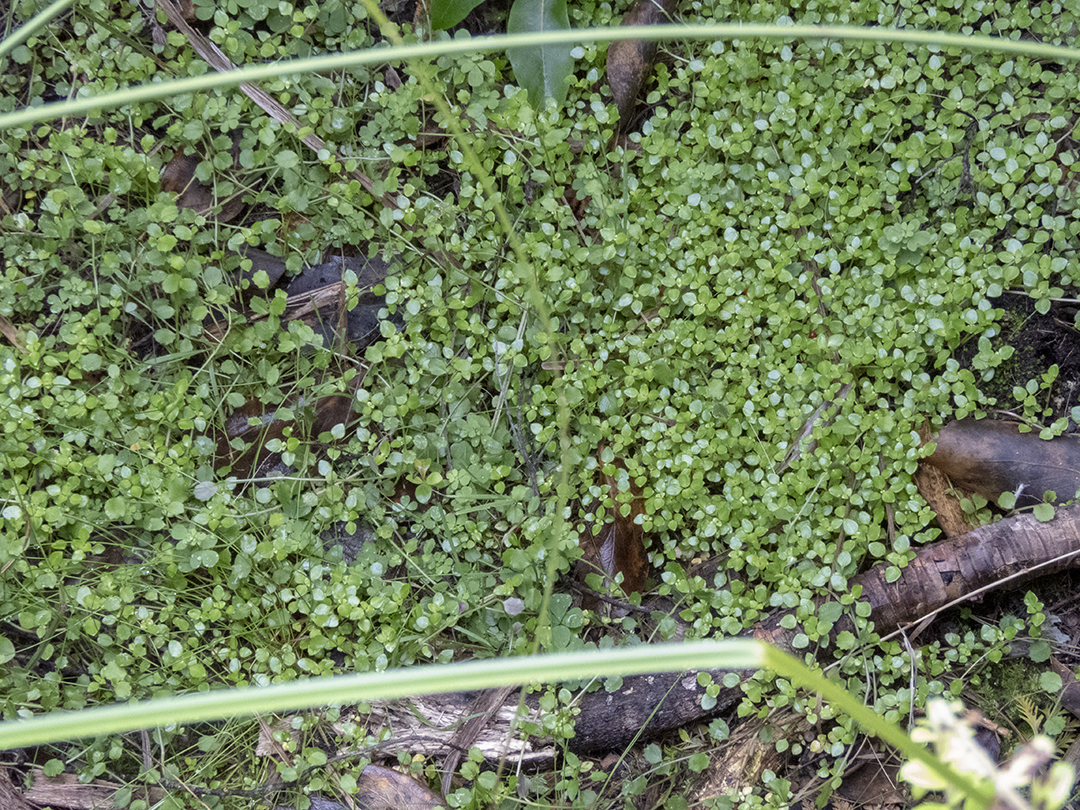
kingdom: Plantae
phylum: Tracheophyta
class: Magnoliopsida
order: Gentianales
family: Rubiaceae
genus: Nertera
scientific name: Nertera granadensis
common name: Beadplant
